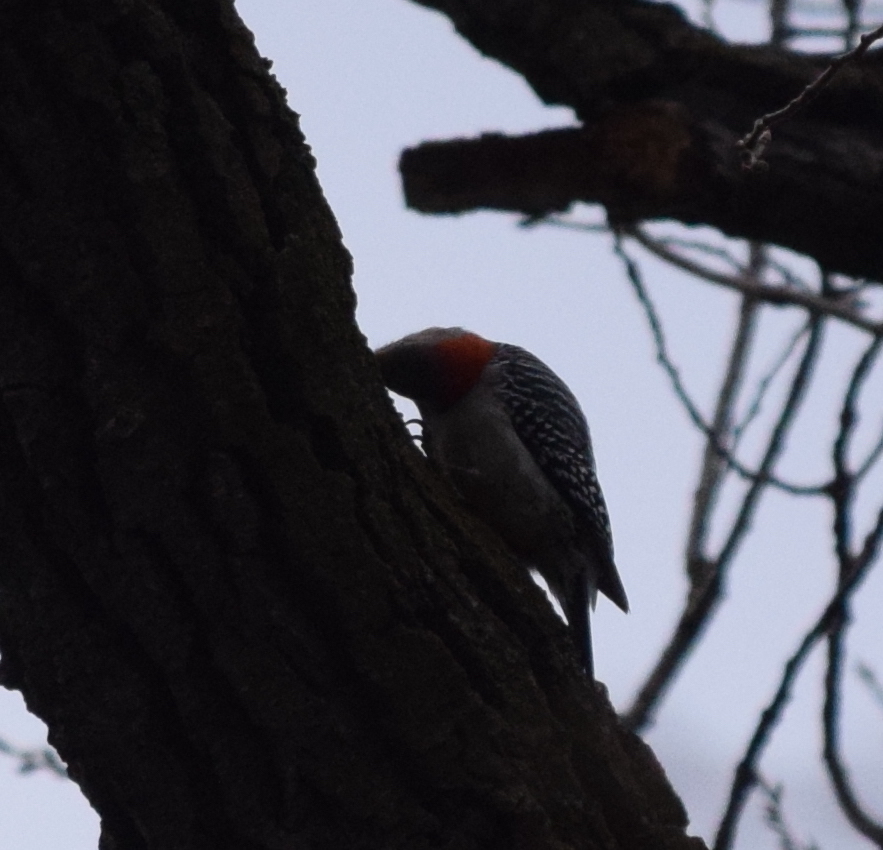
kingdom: Animalia
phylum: Chordata
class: Aves
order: Piciformes
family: Picidae
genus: Melanerpes
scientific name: Melanerpes carolinus
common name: Red-bellied woodpecker
